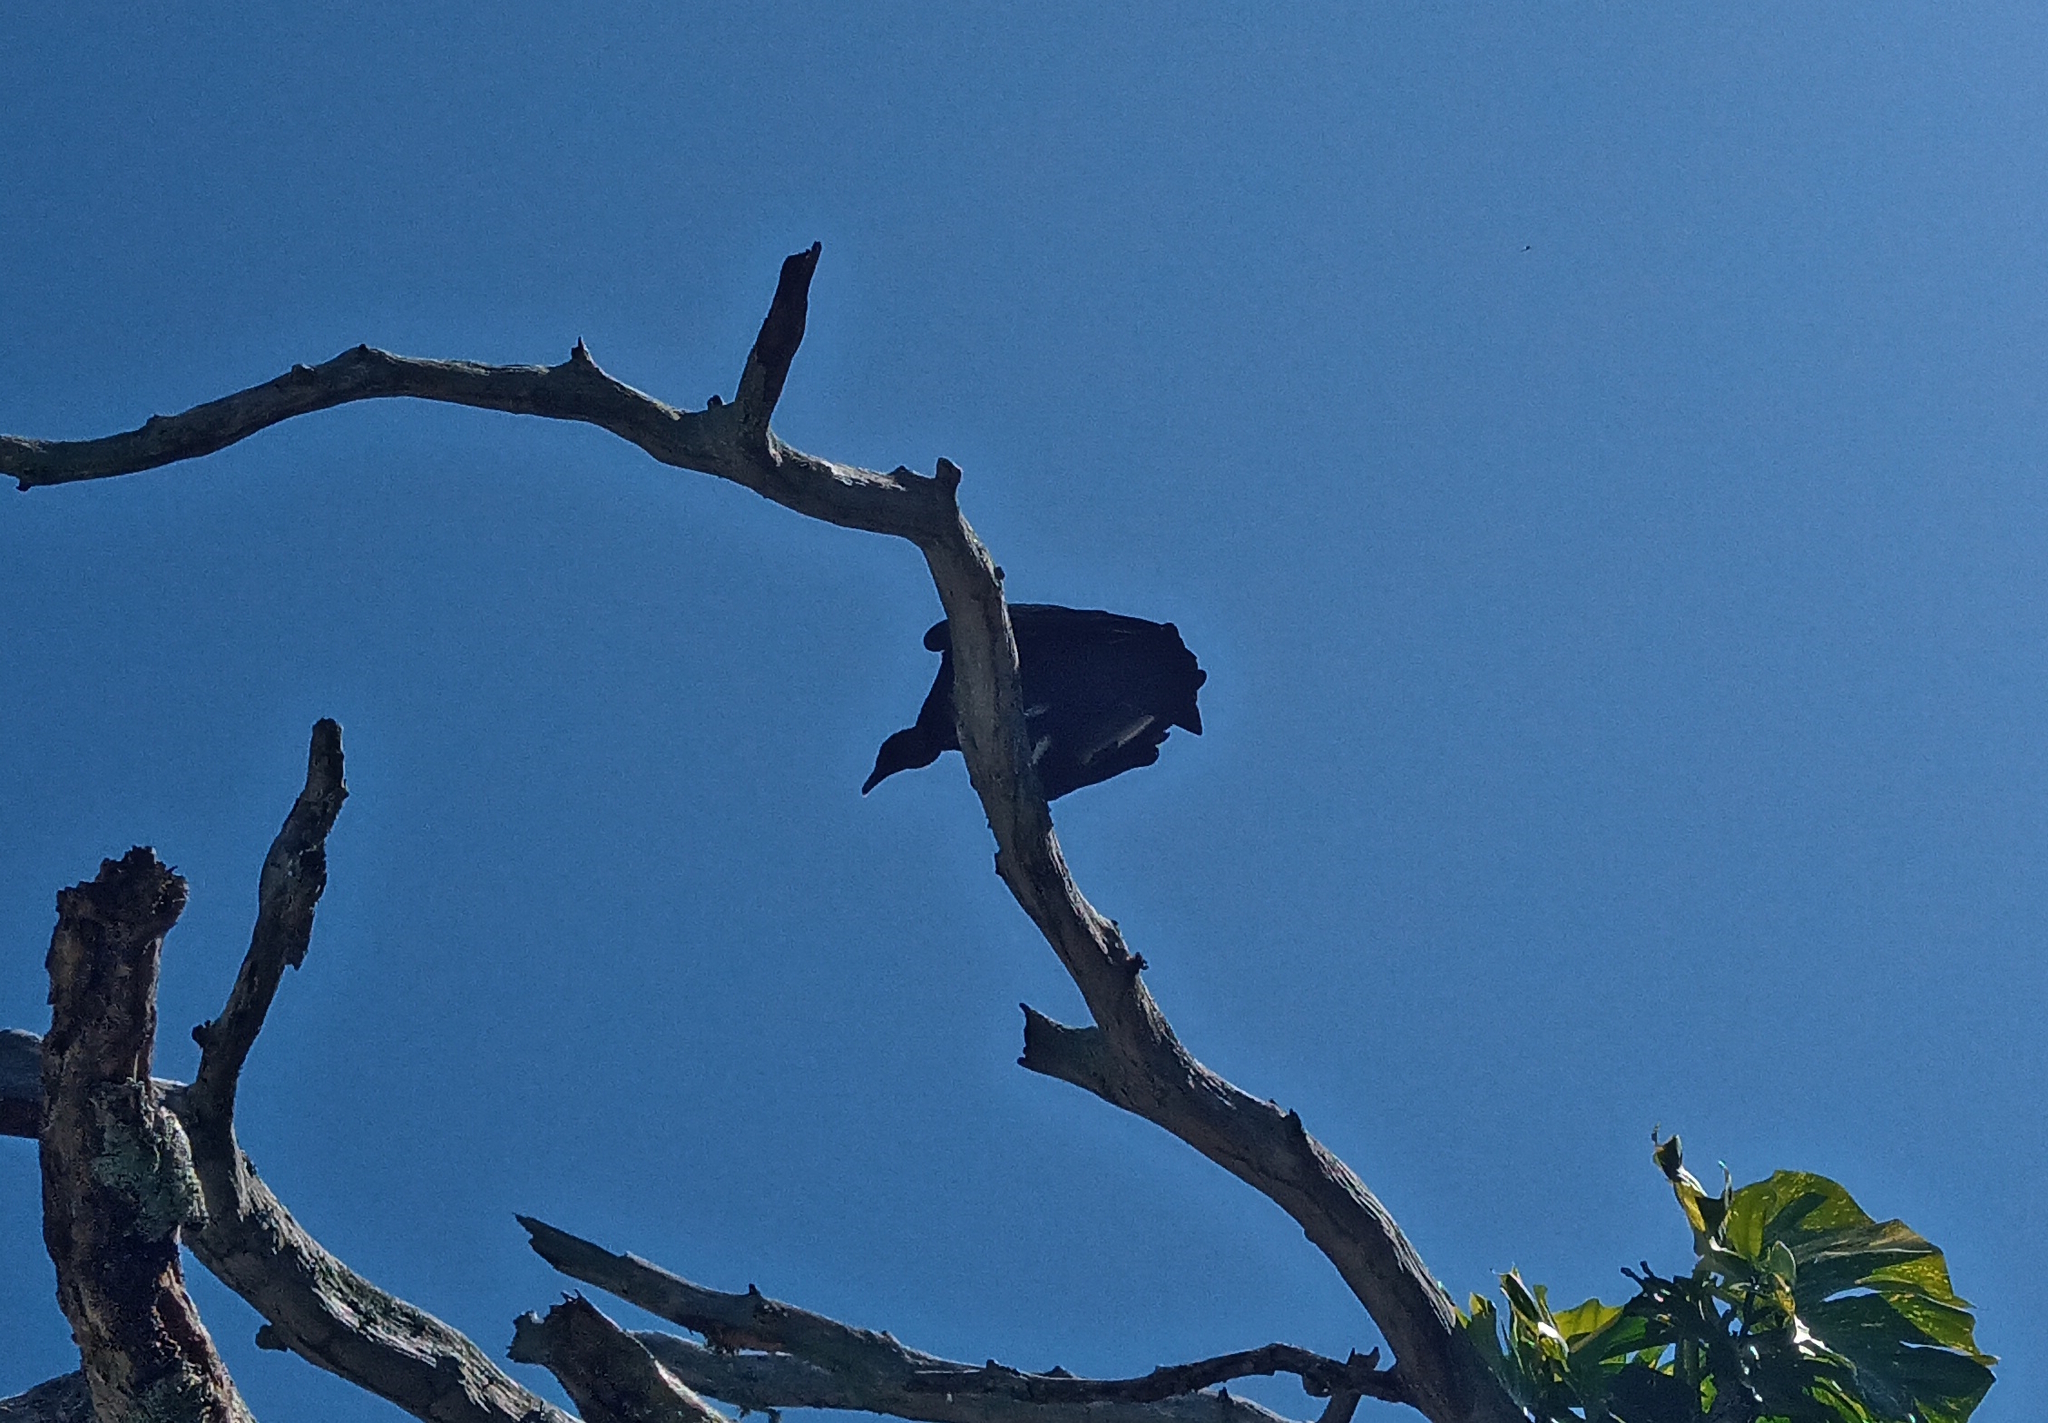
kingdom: Animalia
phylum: Chordata
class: Aves
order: Accipitriformes
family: Cathartidae
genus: Coragyps
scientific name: Coragyps atratus
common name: Black vulture
